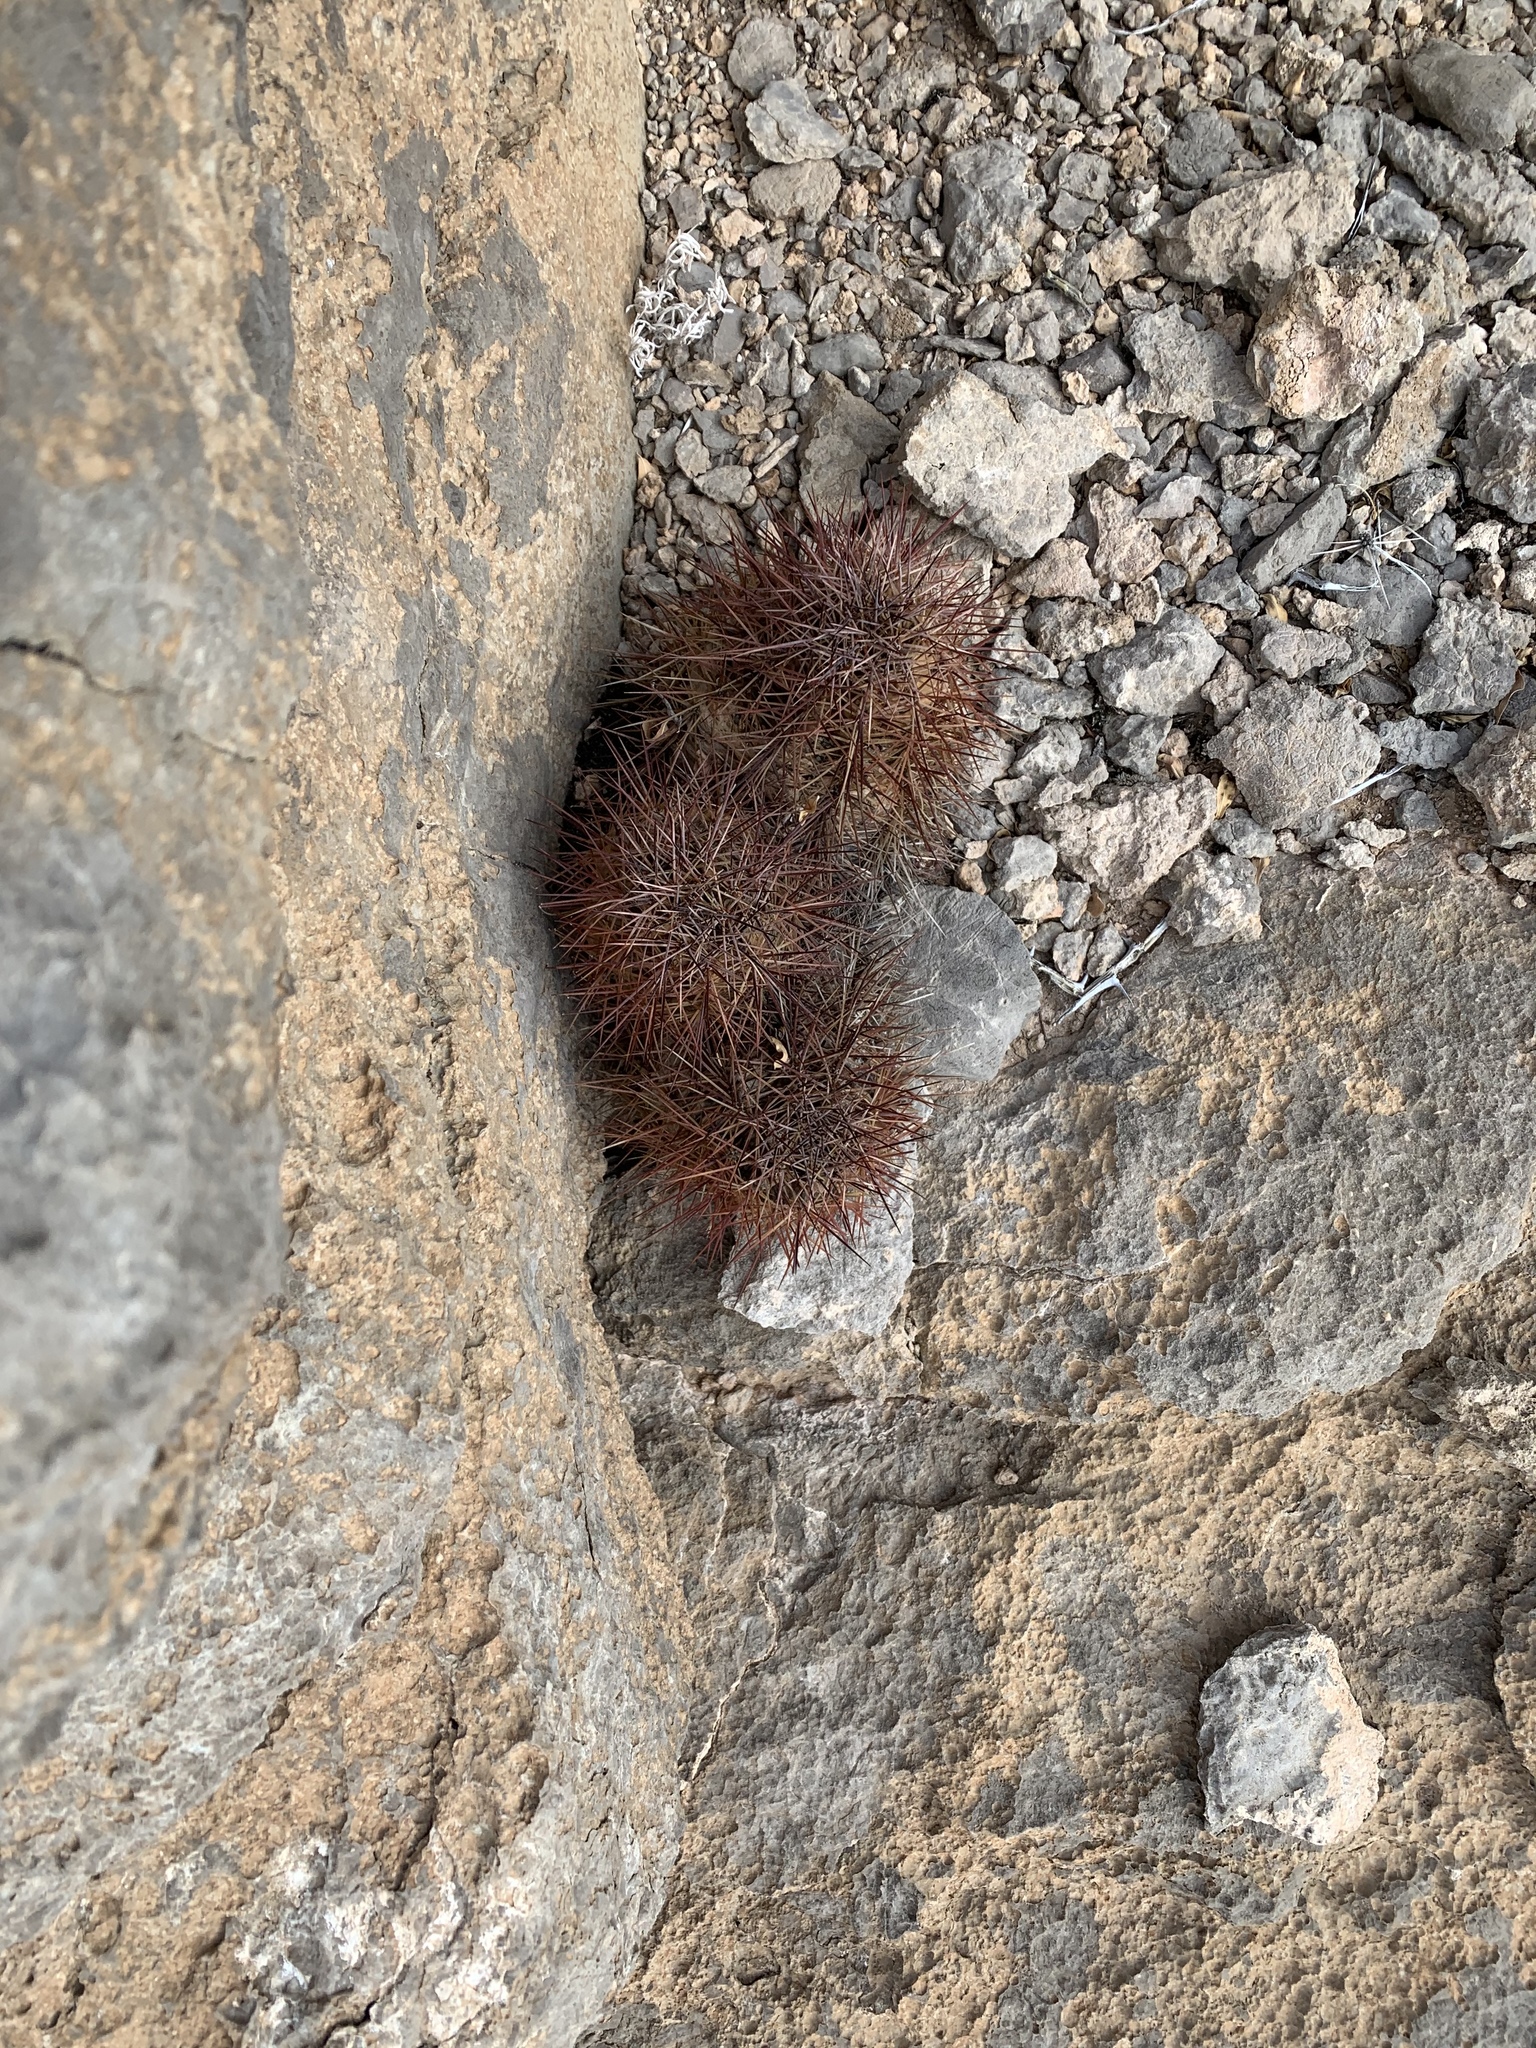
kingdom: Plantae
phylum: Tracheophyta
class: Magnoliopsida
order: Caryophyllales
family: Cactaceae
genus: Echinocereus
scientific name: Echinocereus coccineus
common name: Scarlet hedgehog cactus
